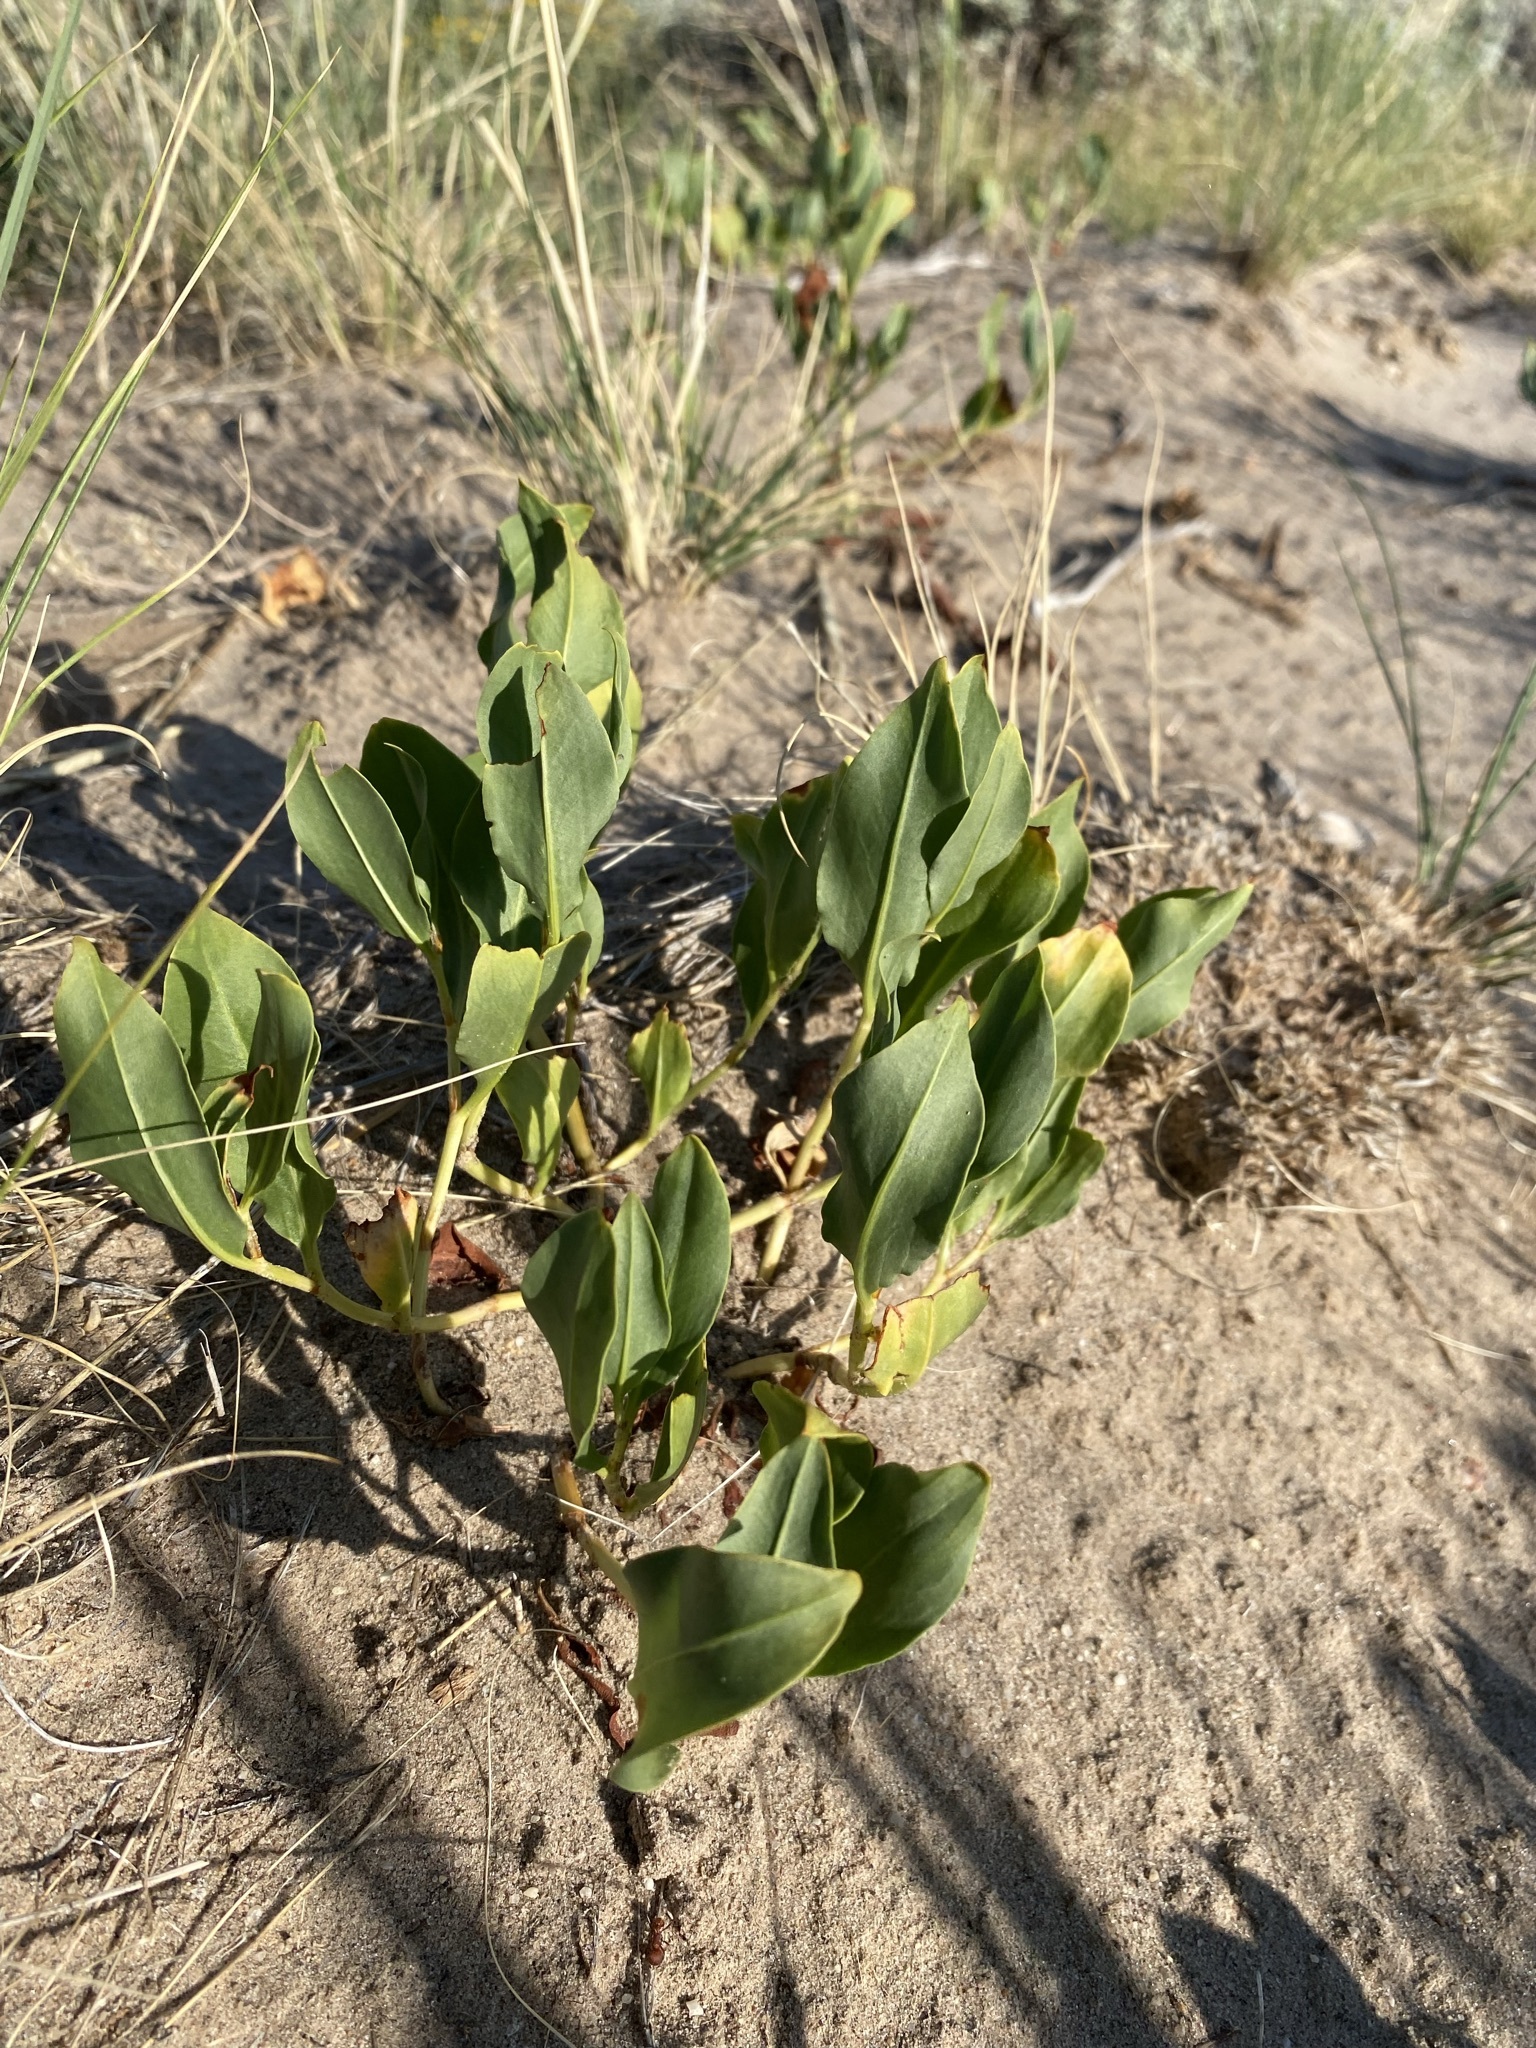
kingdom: Plantae
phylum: Tracheophyta
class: Magnoliopsida
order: Caryophyllales
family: Polygonaceae
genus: Rumex
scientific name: Rumex venosus
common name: Winged dock
